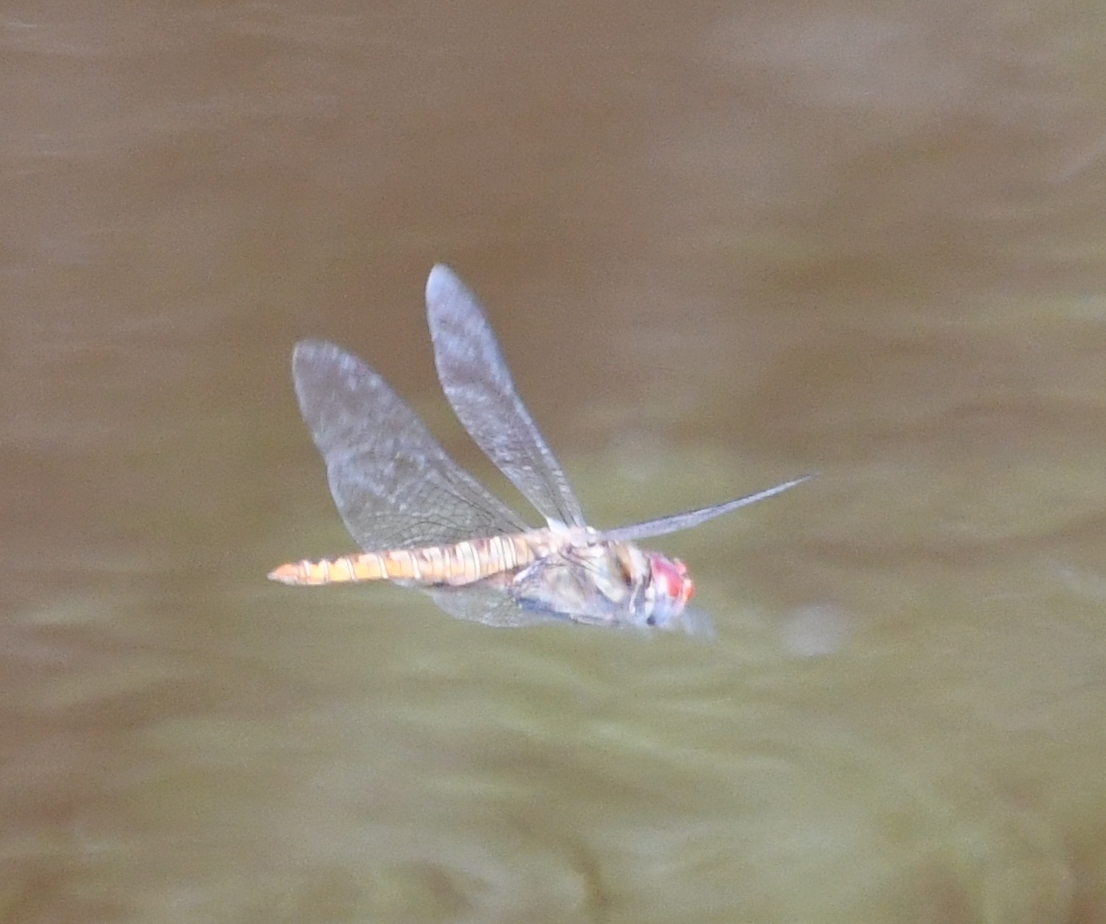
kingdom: Animalia
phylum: Arthropoda
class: Insecta
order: Odonata
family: Libellulidae
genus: Pantala
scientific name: Pantala hymenaea
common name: Spot-winged glider
